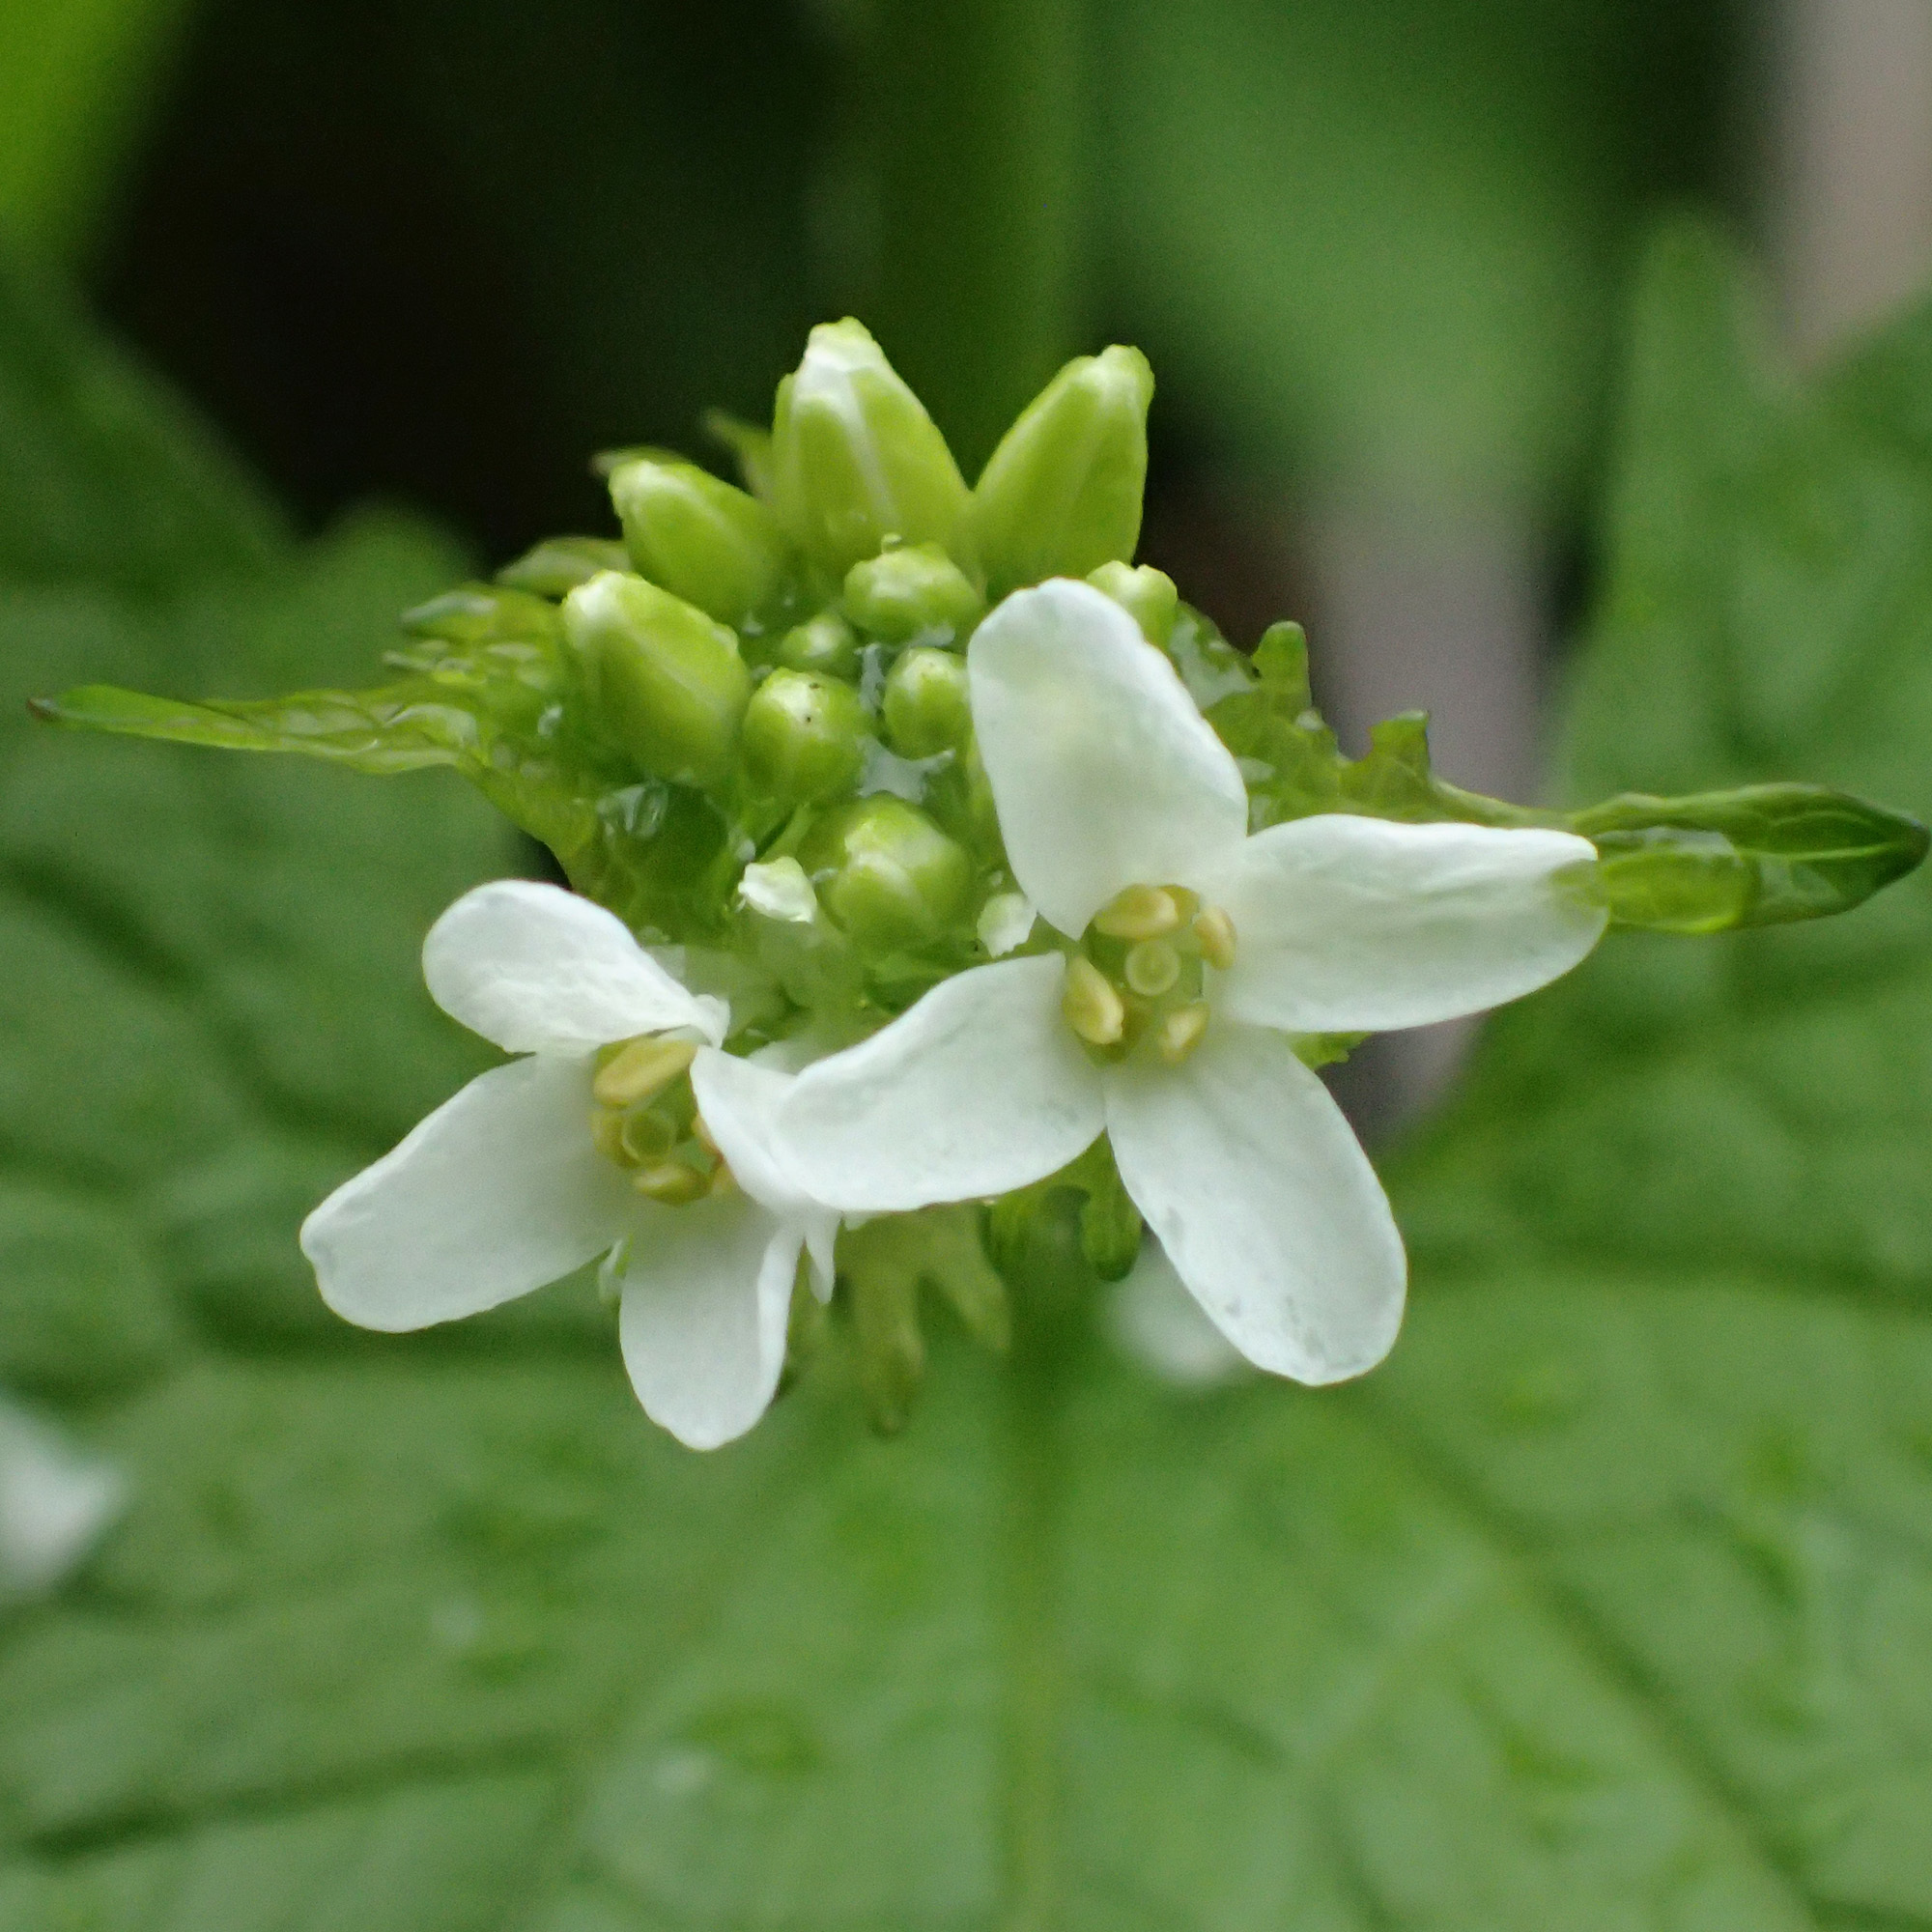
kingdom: Plantae
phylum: Tracheophyta
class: Magnoliopsida
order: Brassicales
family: Brassicaceae
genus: Alliaria
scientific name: Alliaria petiolata
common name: Garlic mustard
